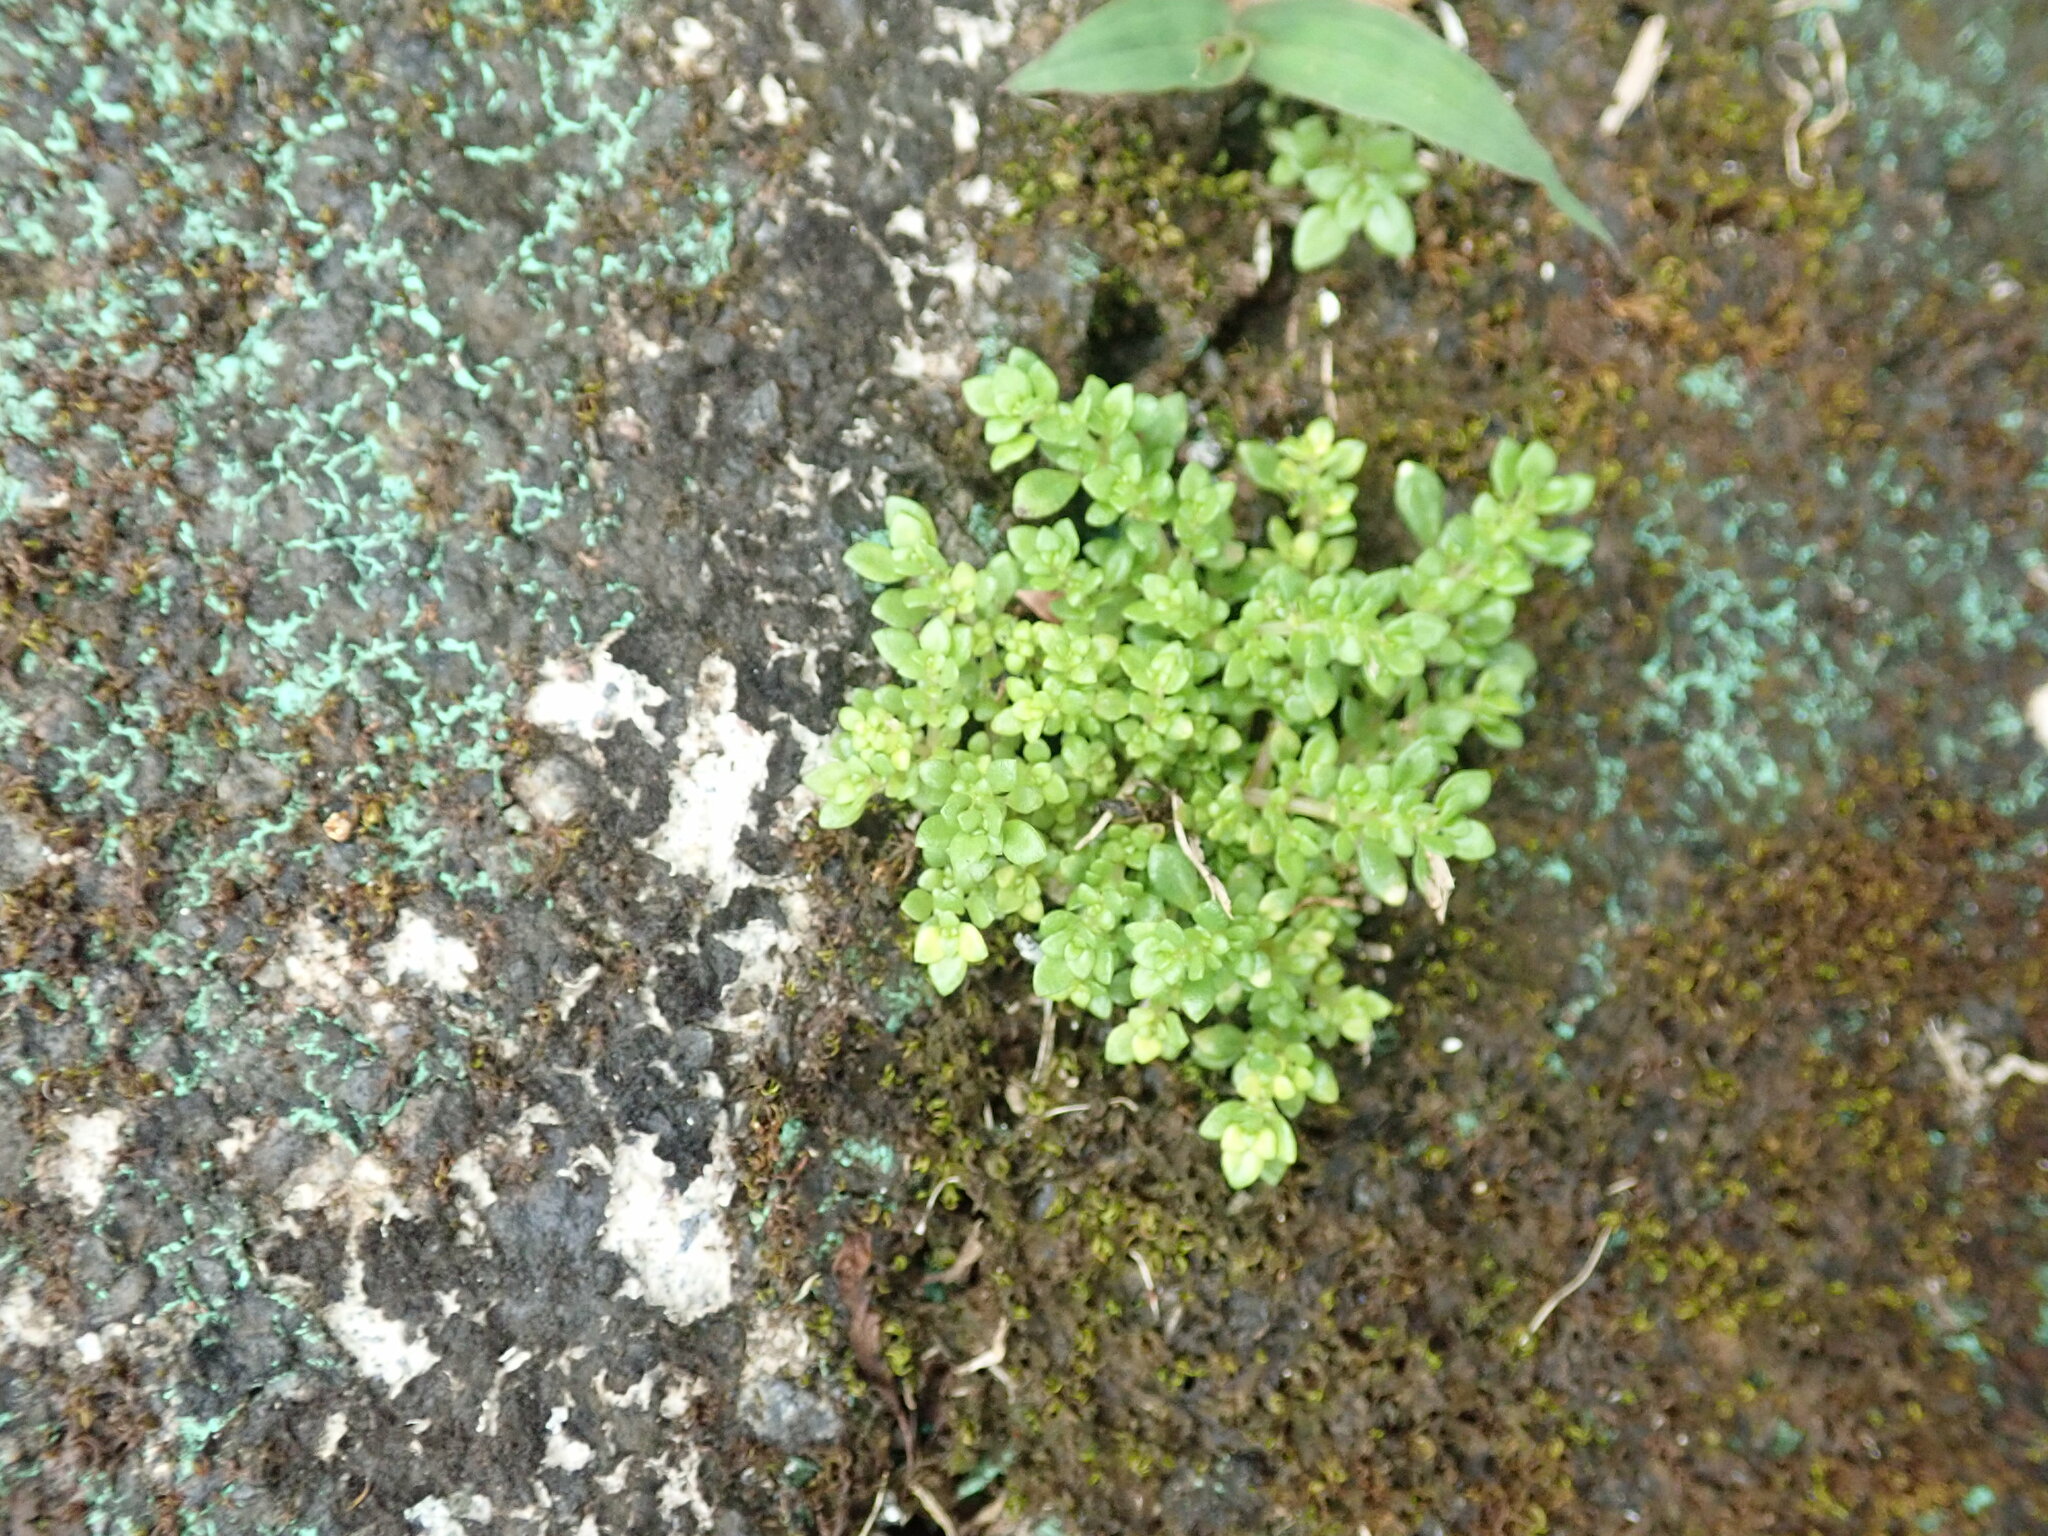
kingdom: Plantae
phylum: Tracheophyta
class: Magnoliopsida
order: Rosales
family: Urticaceae
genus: Pilea
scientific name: Pilea microphylla
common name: Artillery-plant
